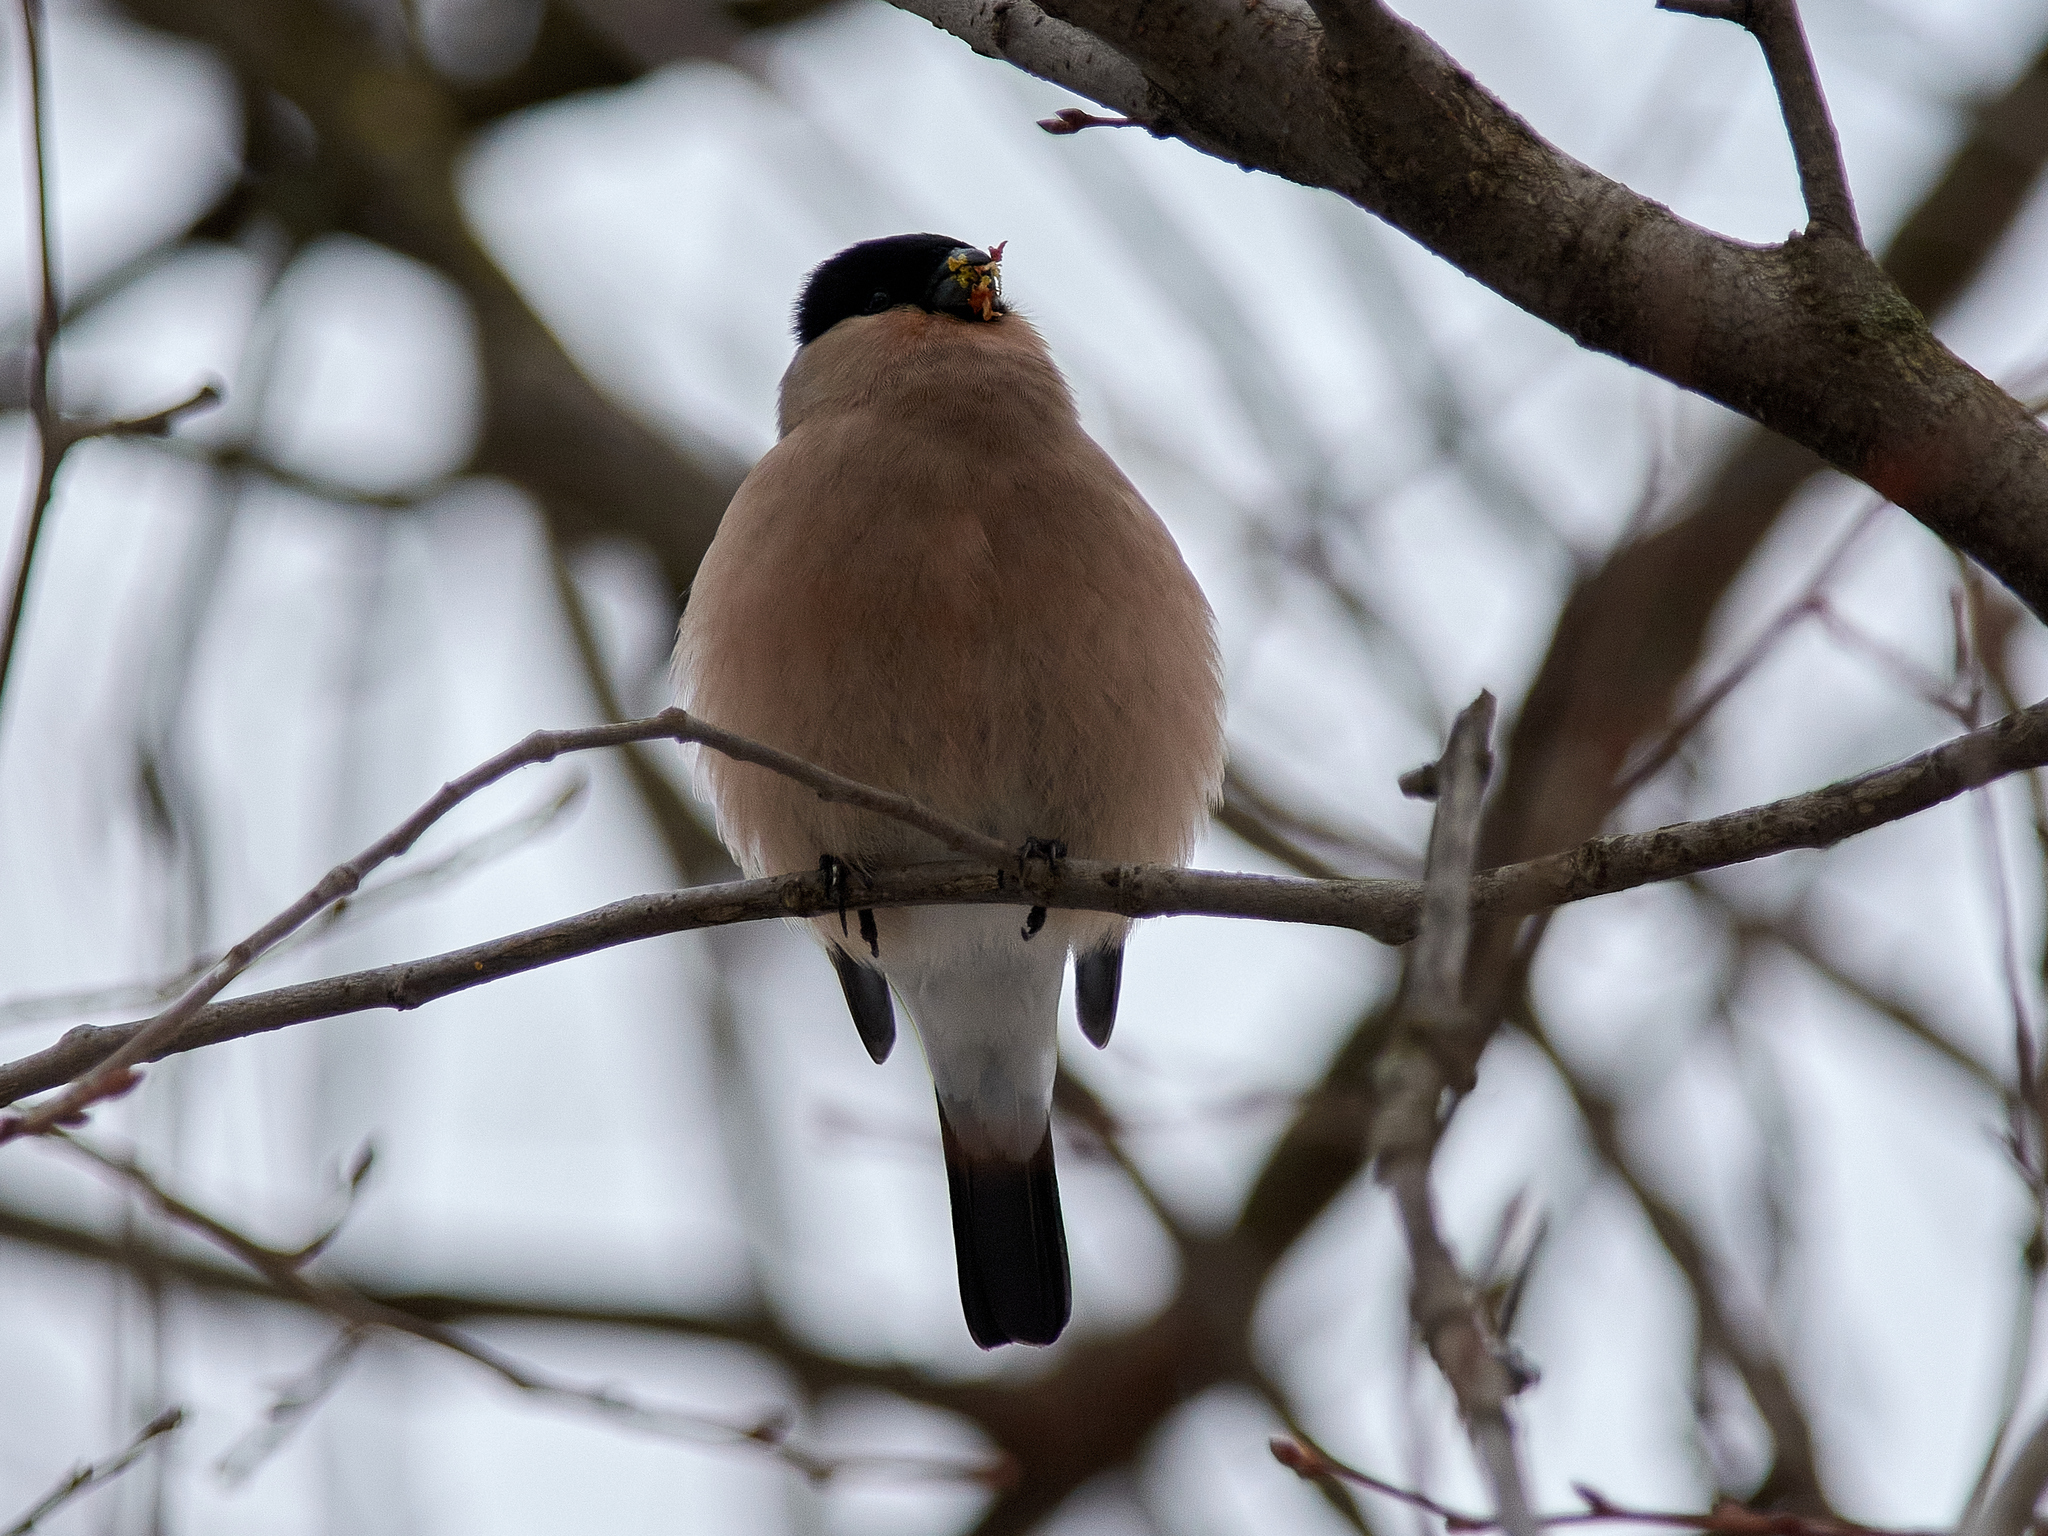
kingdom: Animalia
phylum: Chordata
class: Aves
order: Passeriformes
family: Fringillidae
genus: Pyrrhula
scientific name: Pyrrhula pyrrhula
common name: Eurasian bullfinch
